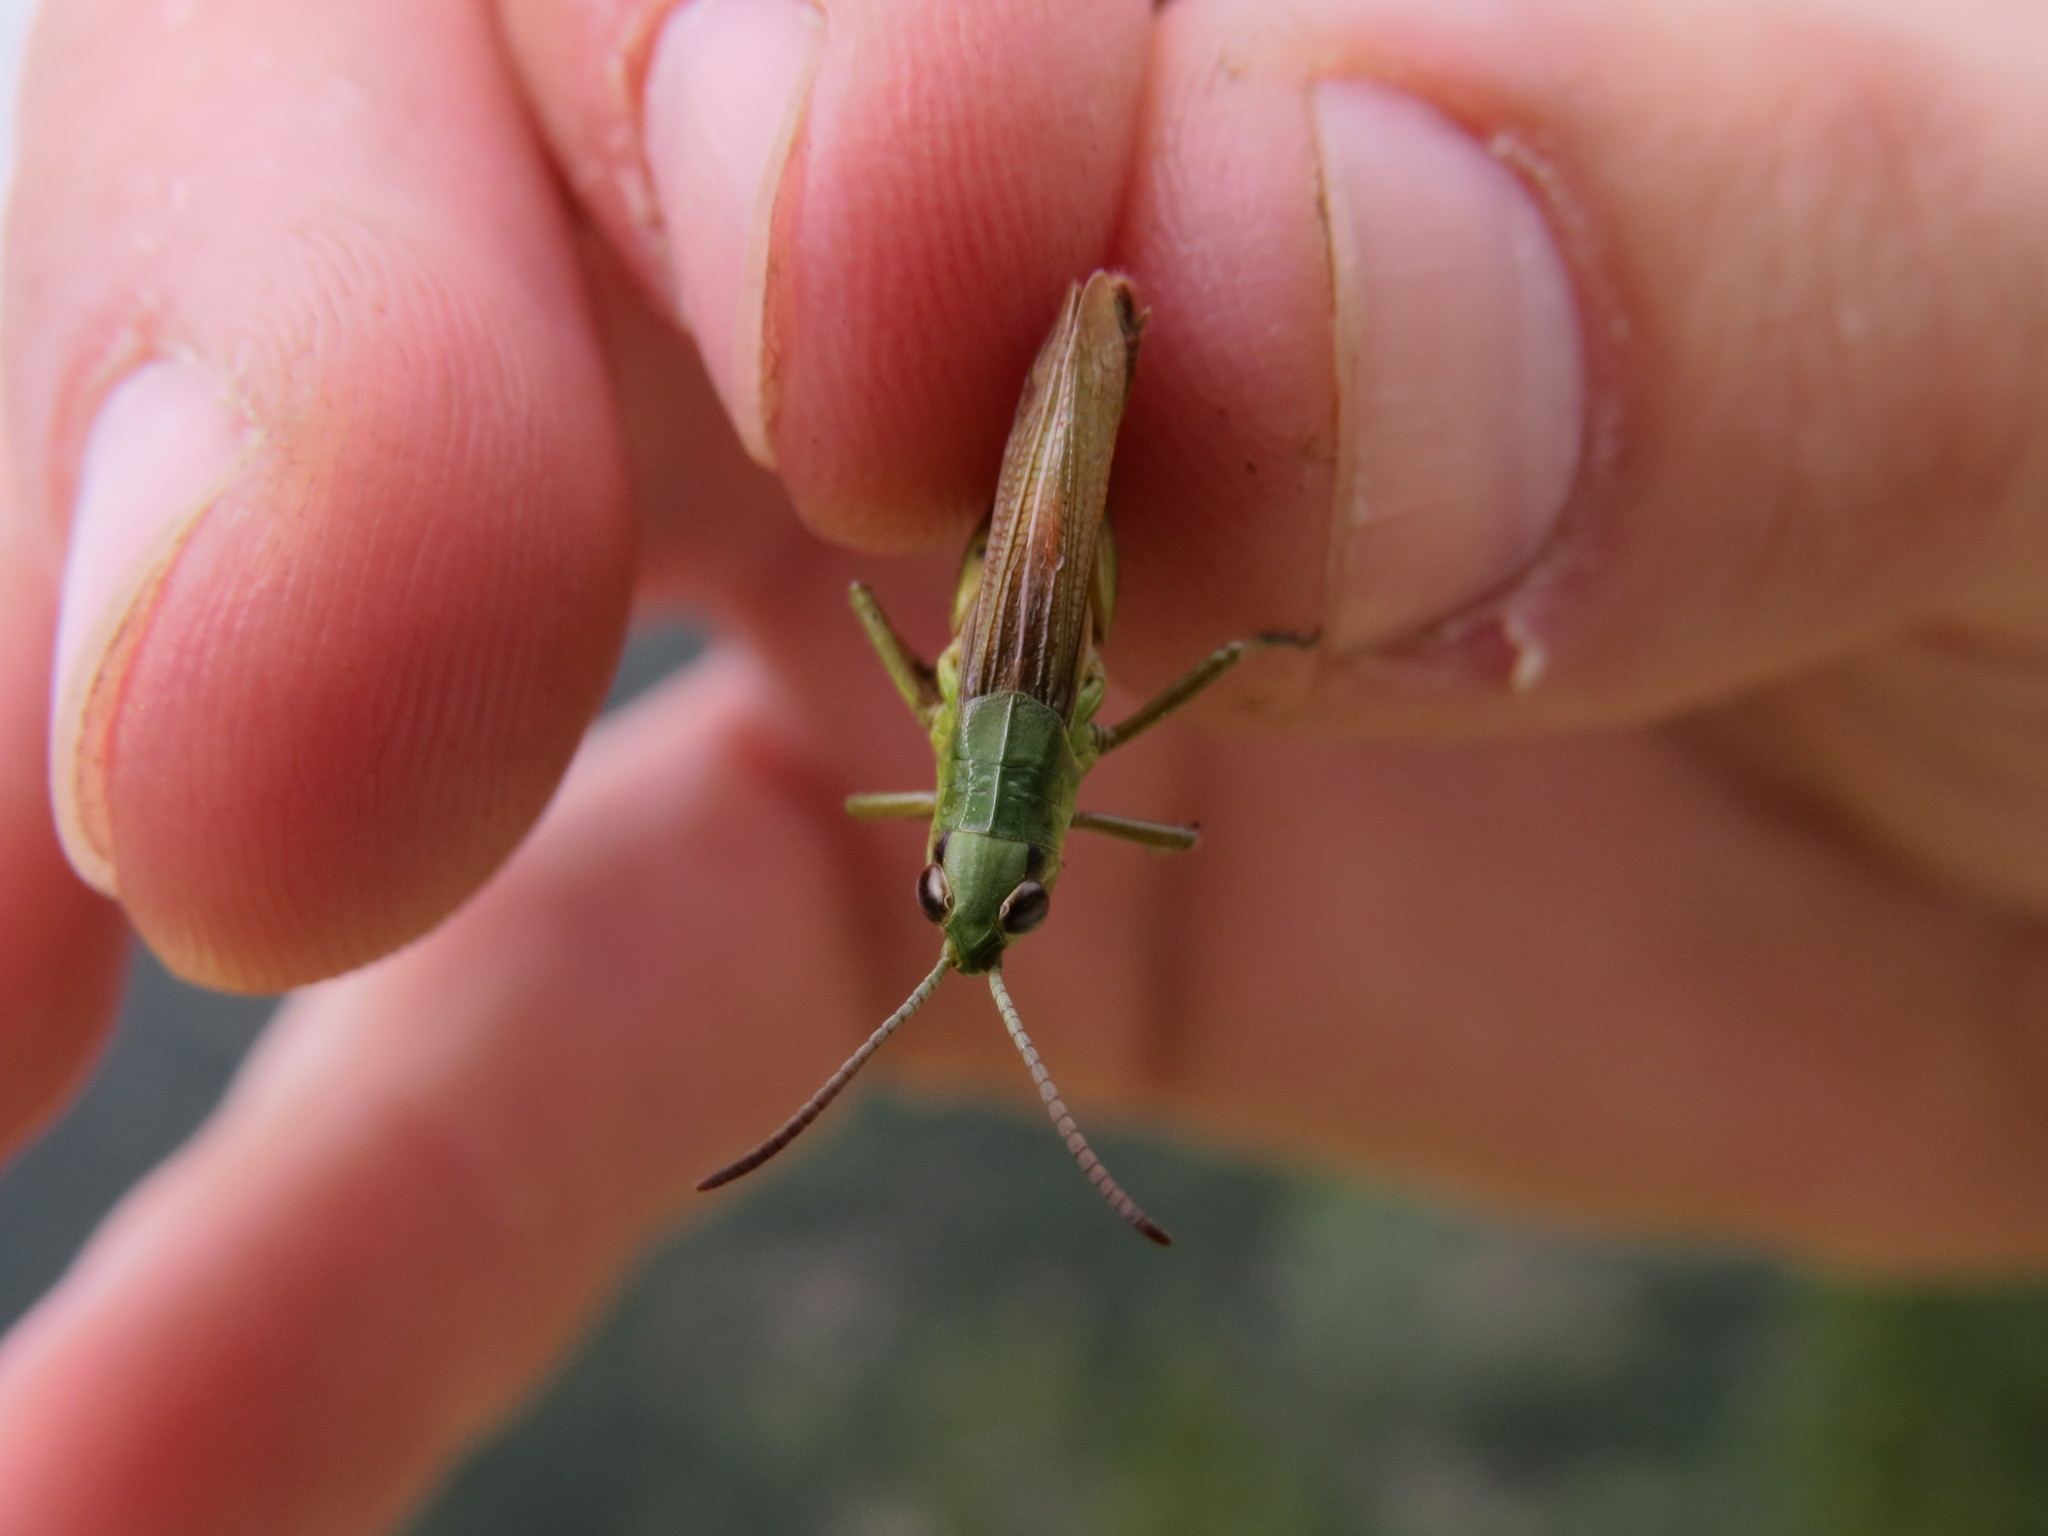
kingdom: Animalia
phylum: Arthropoda
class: Insecta
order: Orthoptera
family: Acrididae
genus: Pseudochorthippus
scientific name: Pseudochorthippus parallelus
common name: Meadow grasshopper
